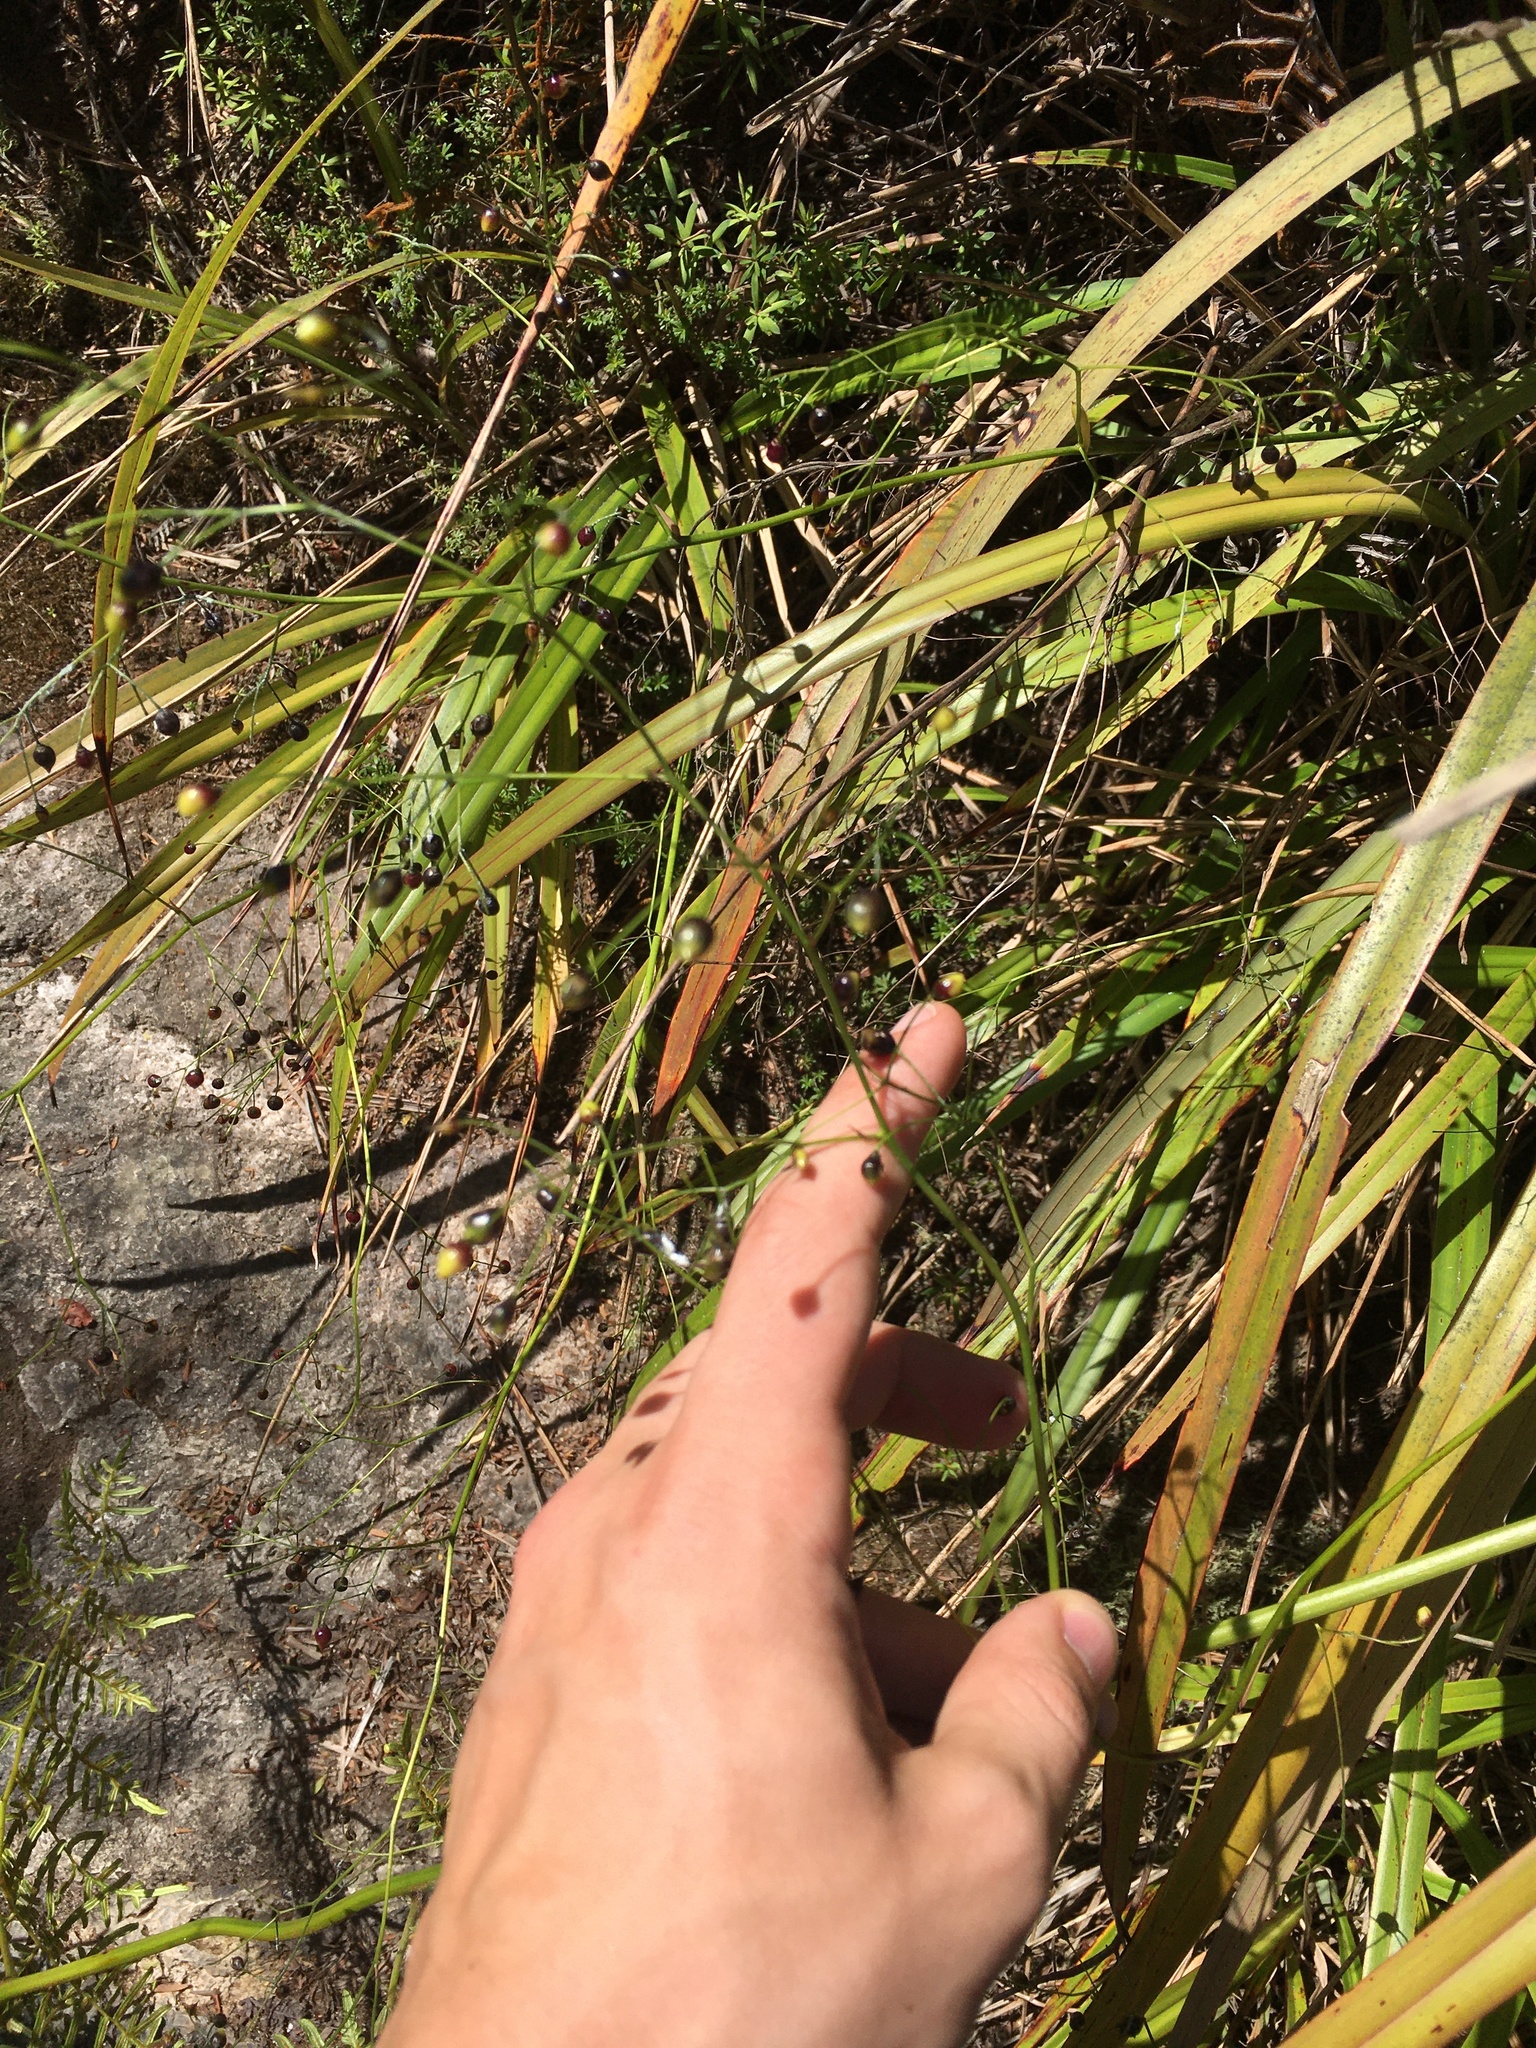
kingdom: Plantae
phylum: Tracheophyta
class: Liliopsida
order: Asparagales
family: Asphodelaceae
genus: Dianella
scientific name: Dianella nigra
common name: New zealand-blueberry
